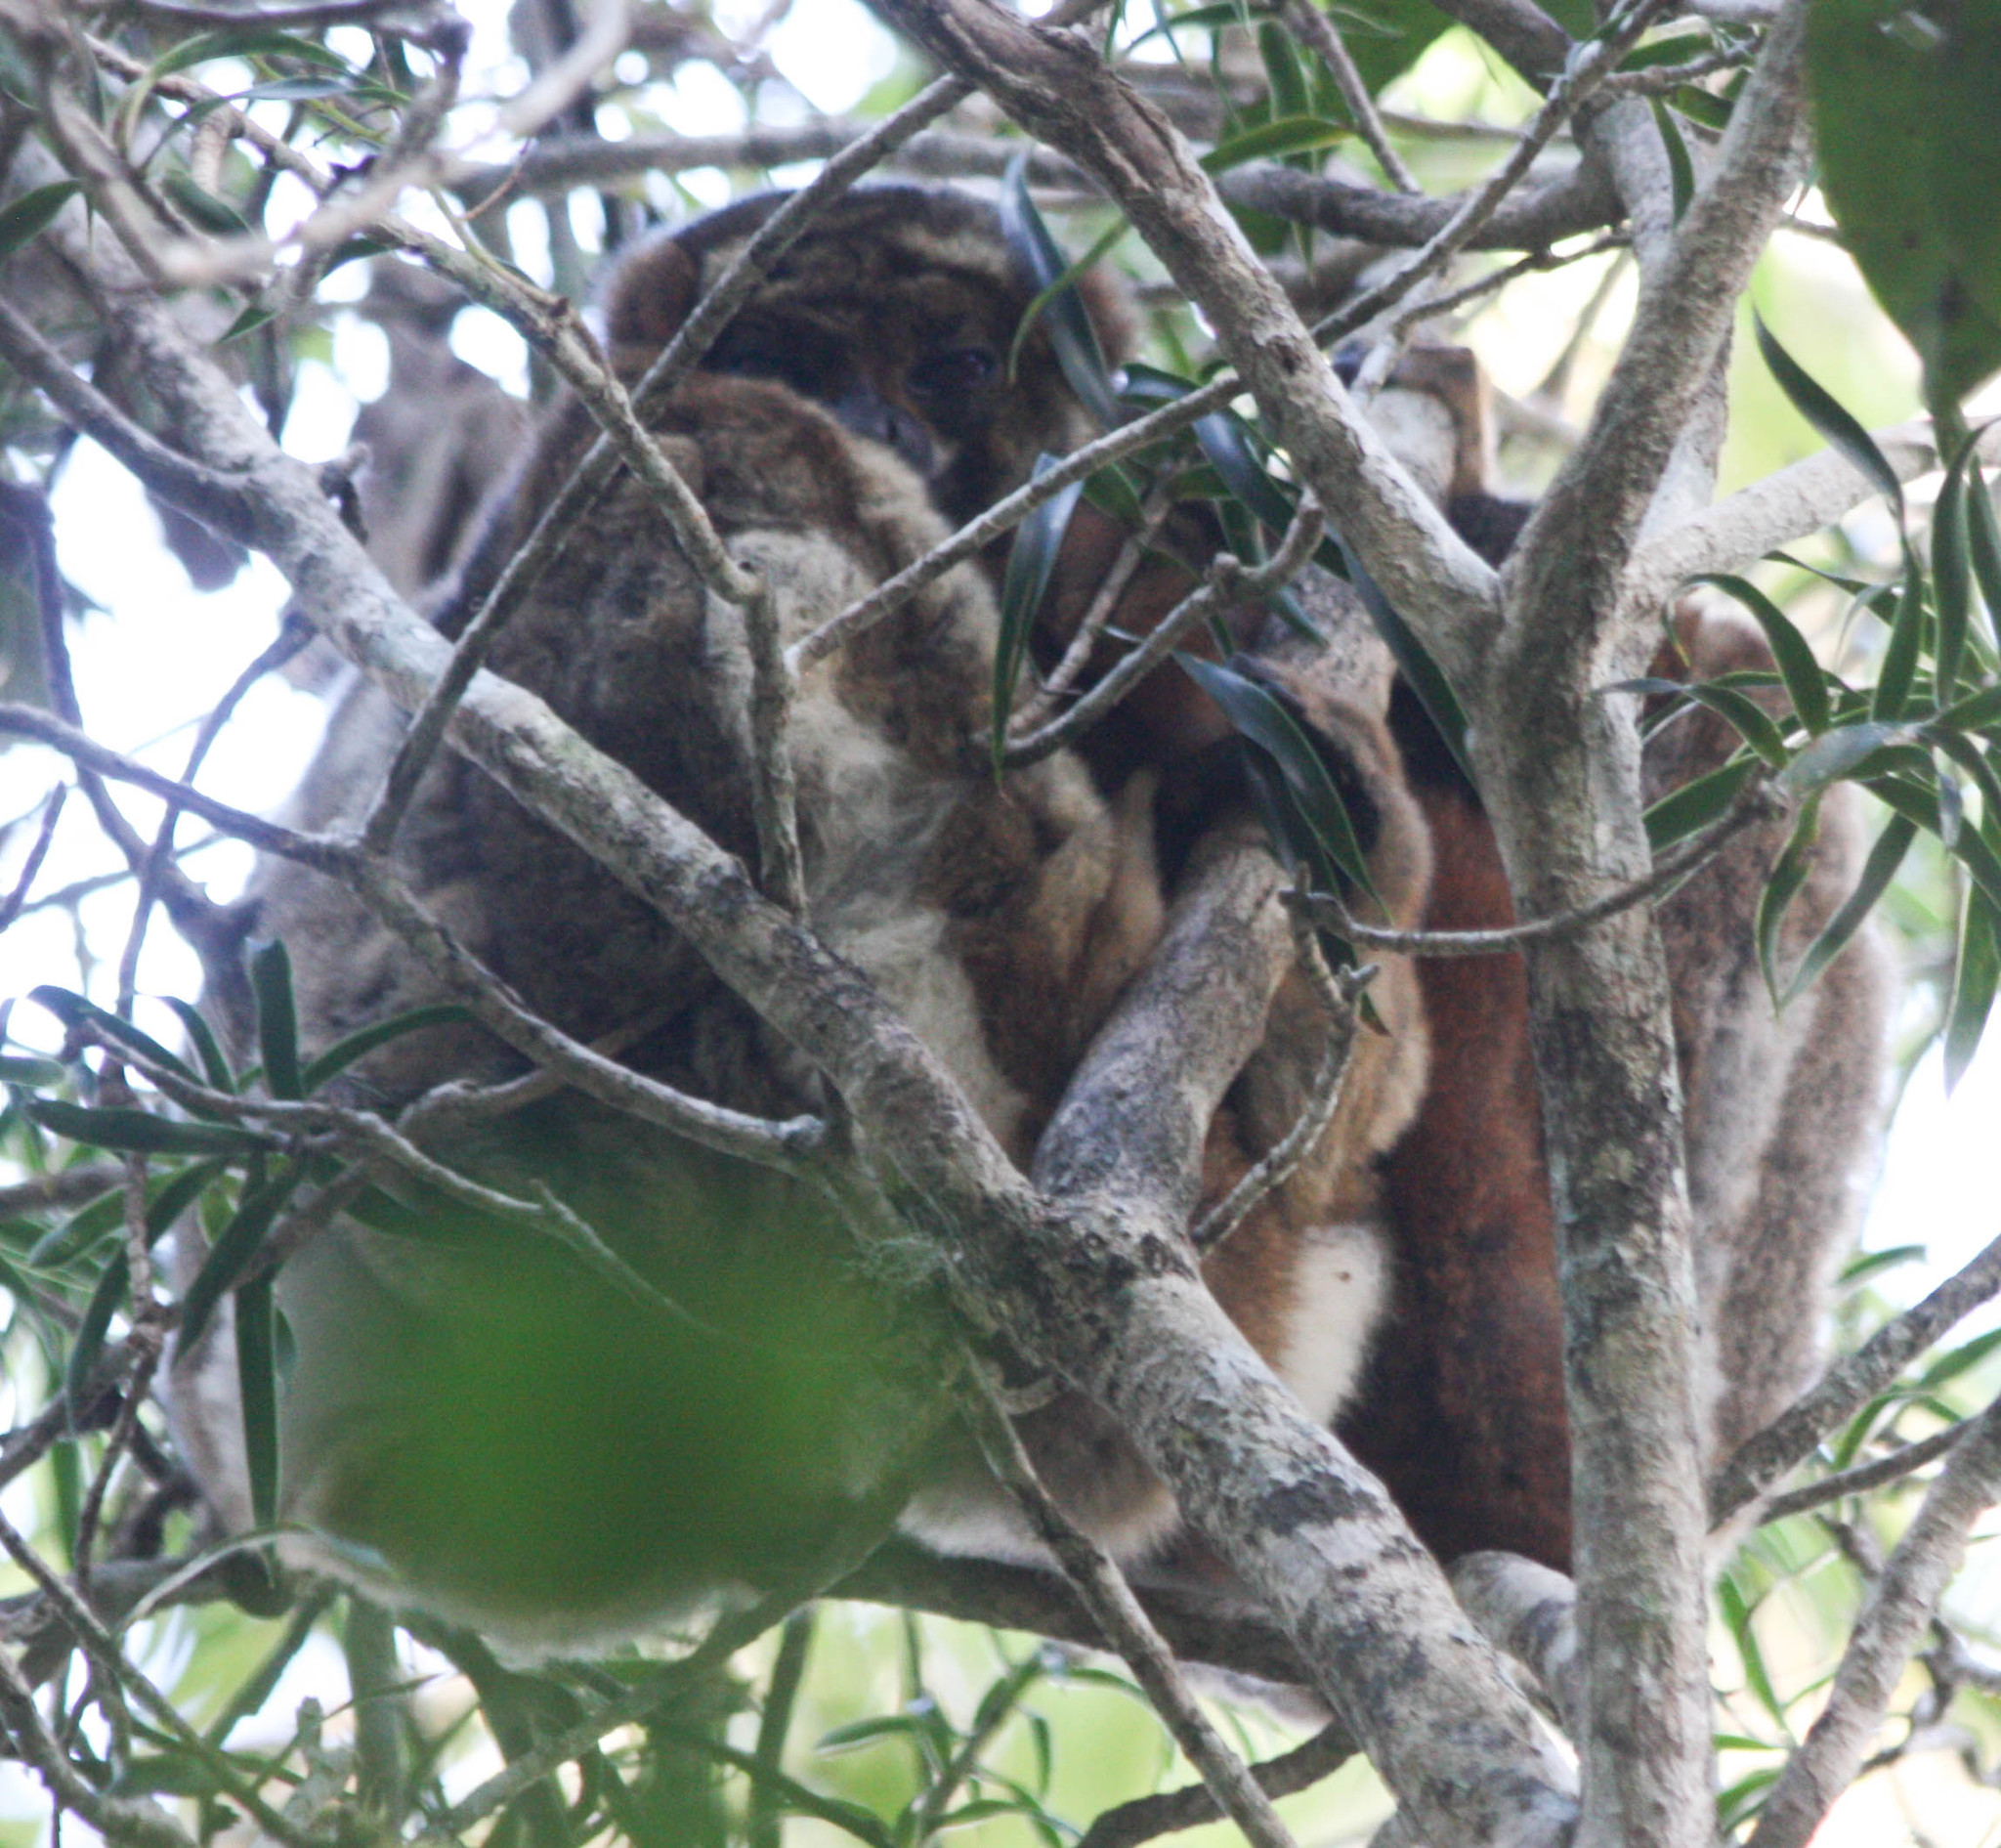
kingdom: Animalia
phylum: Chordata
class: Mammalia
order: Primates
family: Indriidae
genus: Avahi
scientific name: Avahi laniger
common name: Eastern woolly lemur
